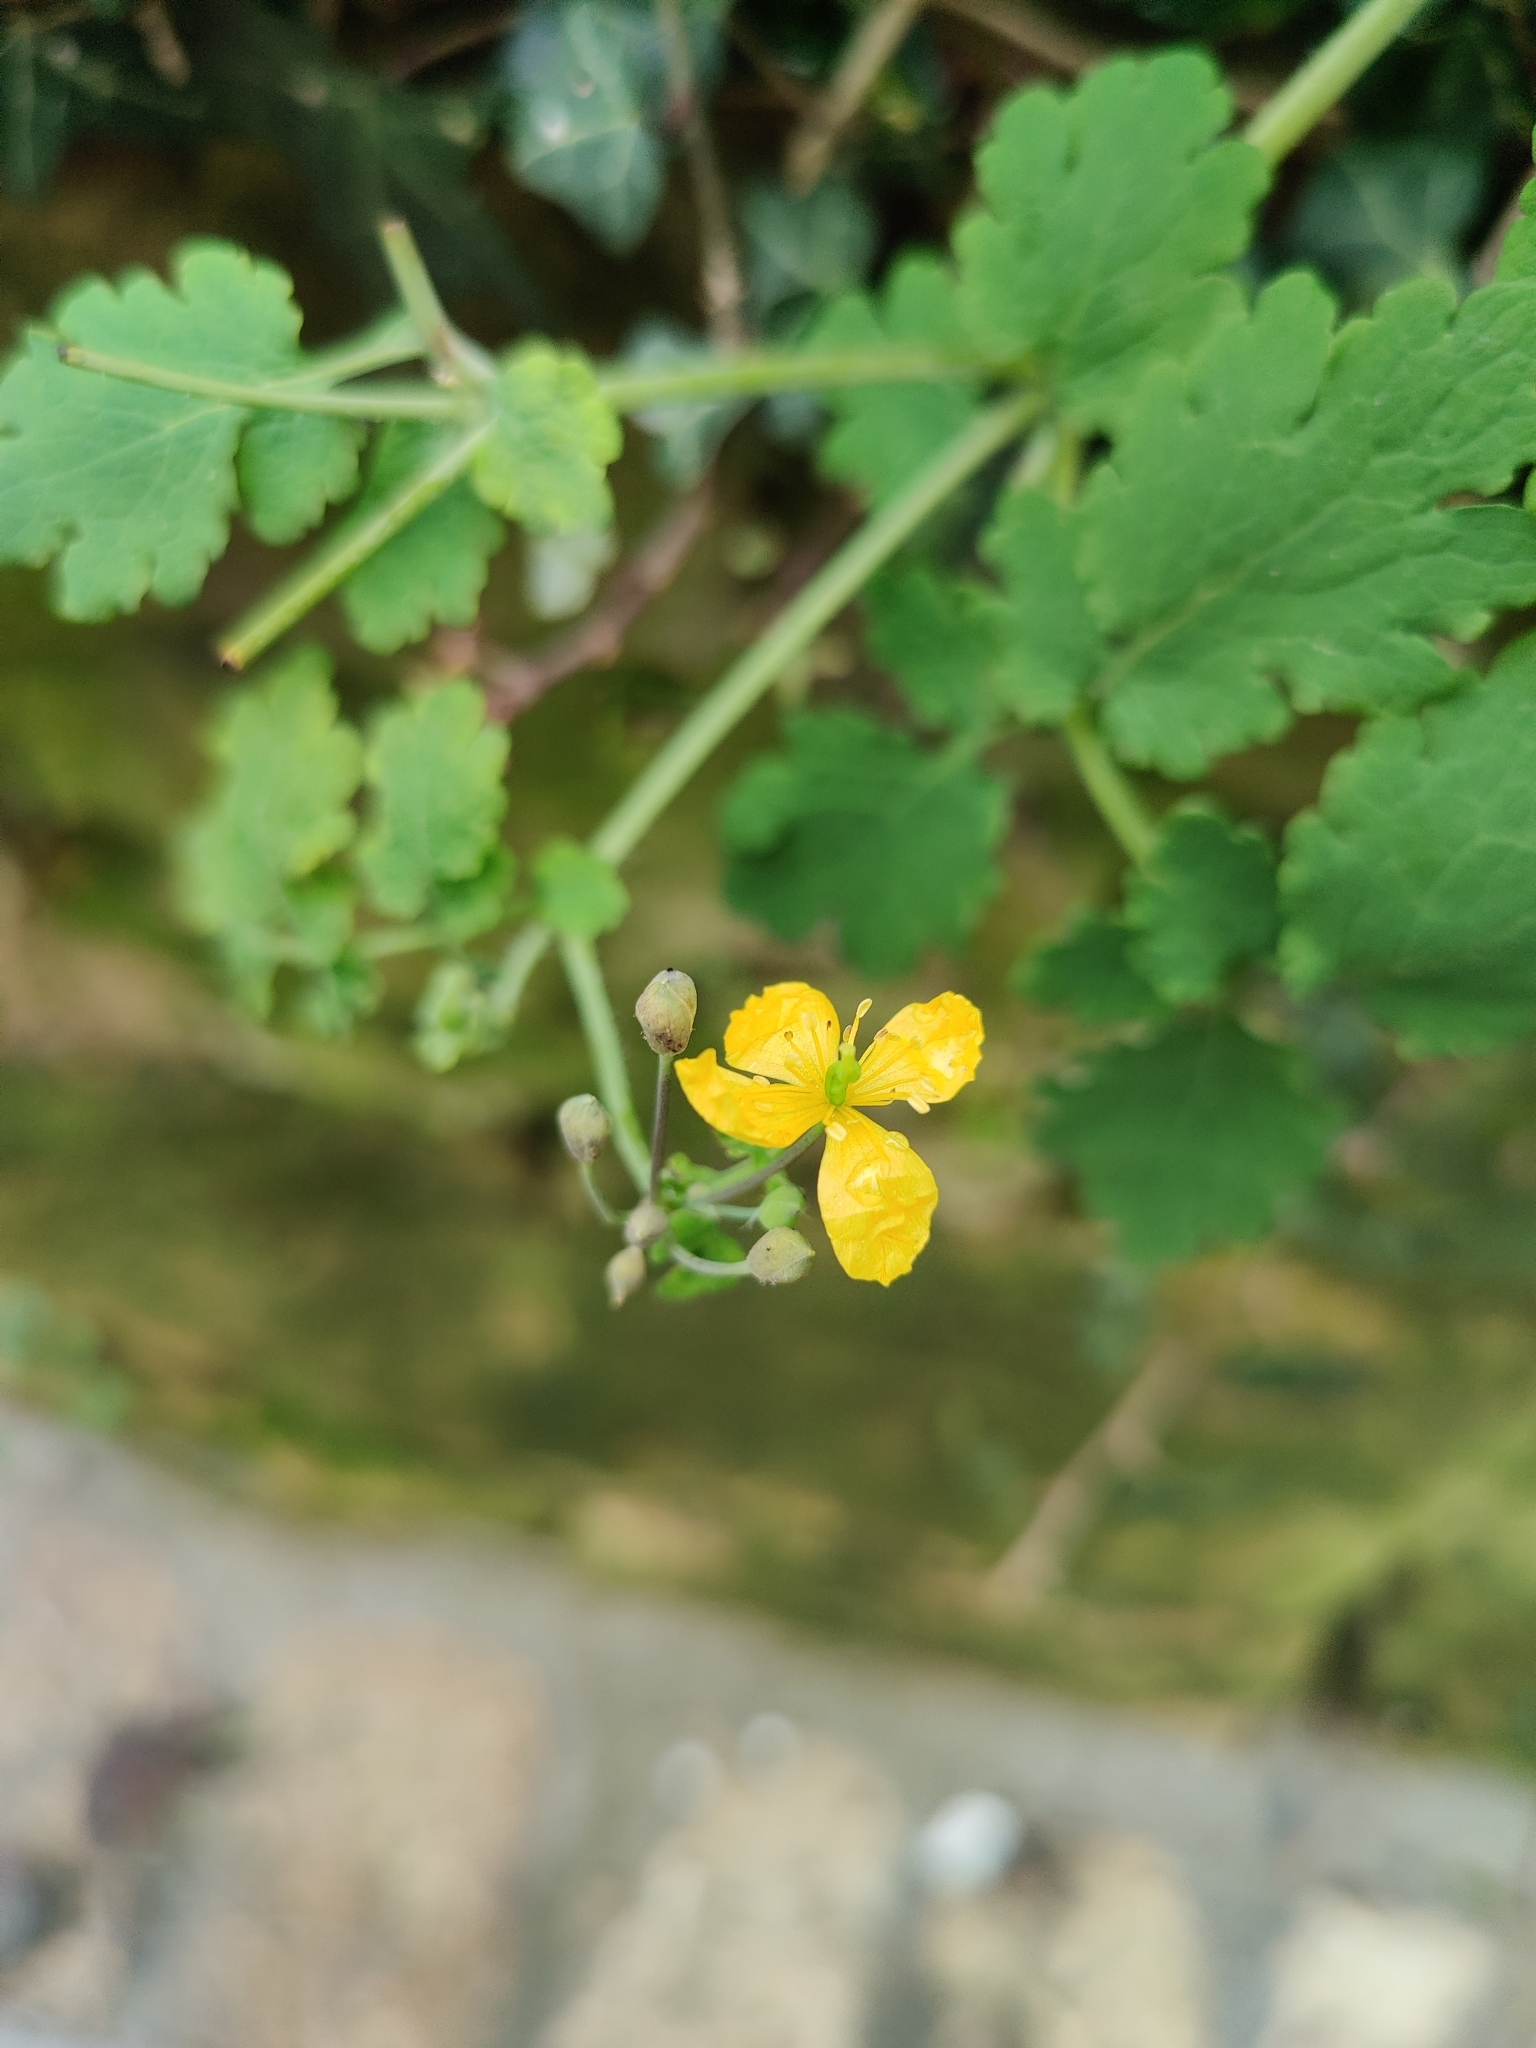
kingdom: Plantae
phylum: Tracheophyta
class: Magnoliopsida
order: Ranunculales
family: Papaveraceae
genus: Chelidonium
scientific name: Chelidonium majus
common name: Greater celandine
